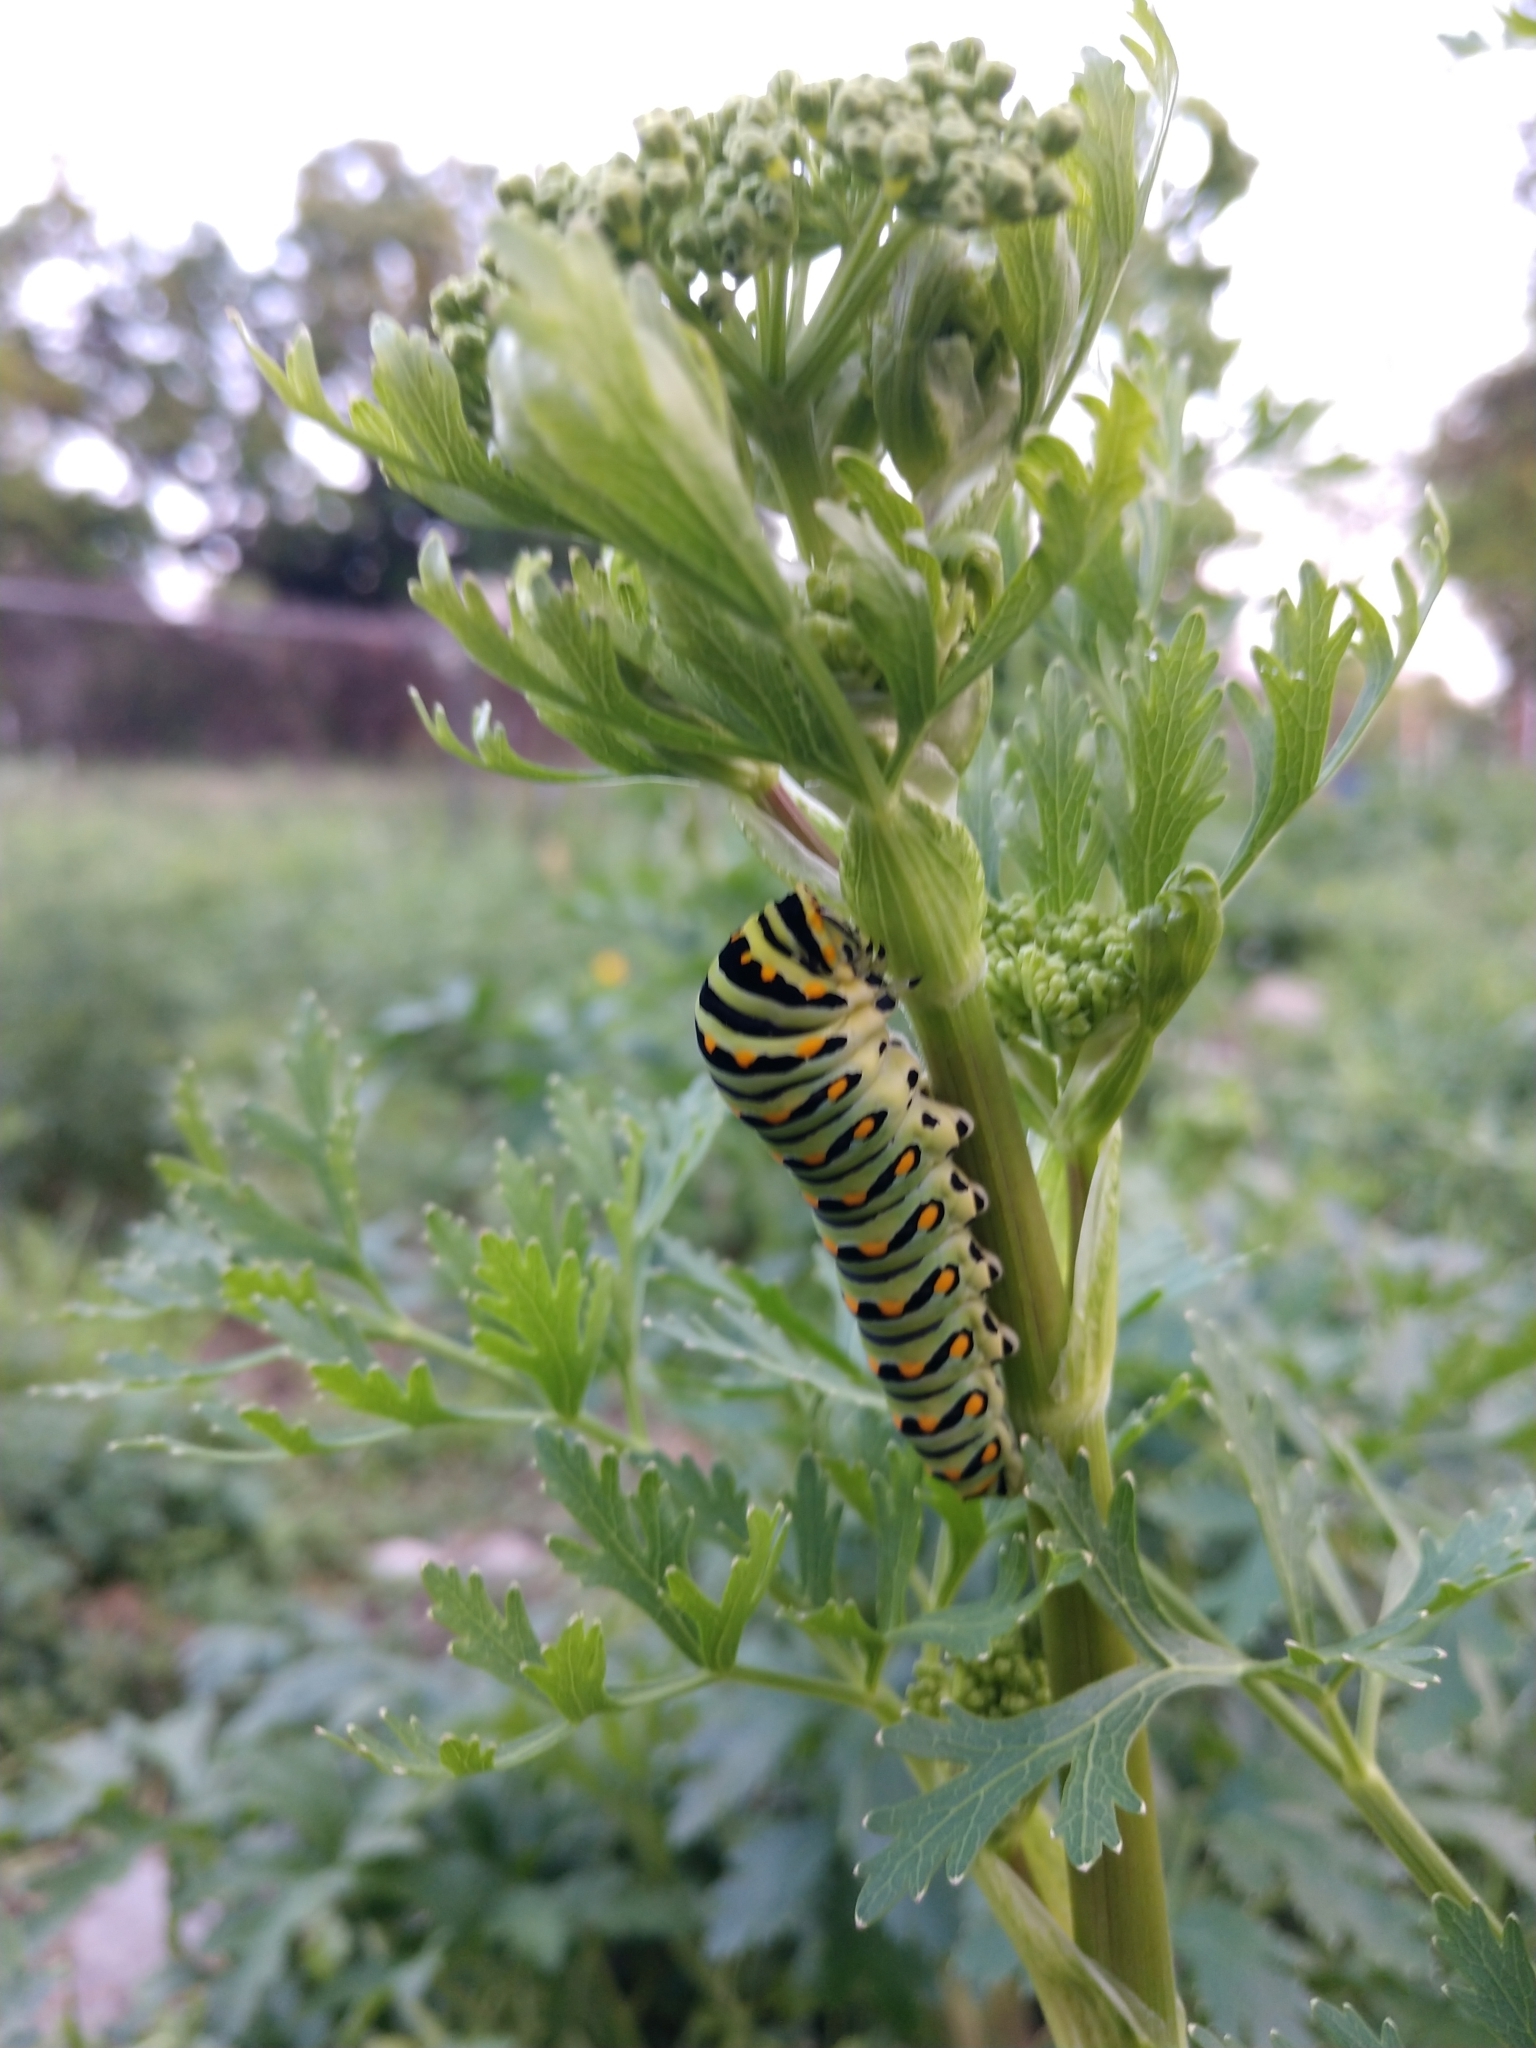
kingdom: Animalia
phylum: Arthropoda
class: Insecta
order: Lepidoptera
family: Papilionidae
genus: Papilio
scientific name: Papilio polyxenes
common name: Black swallowtail
